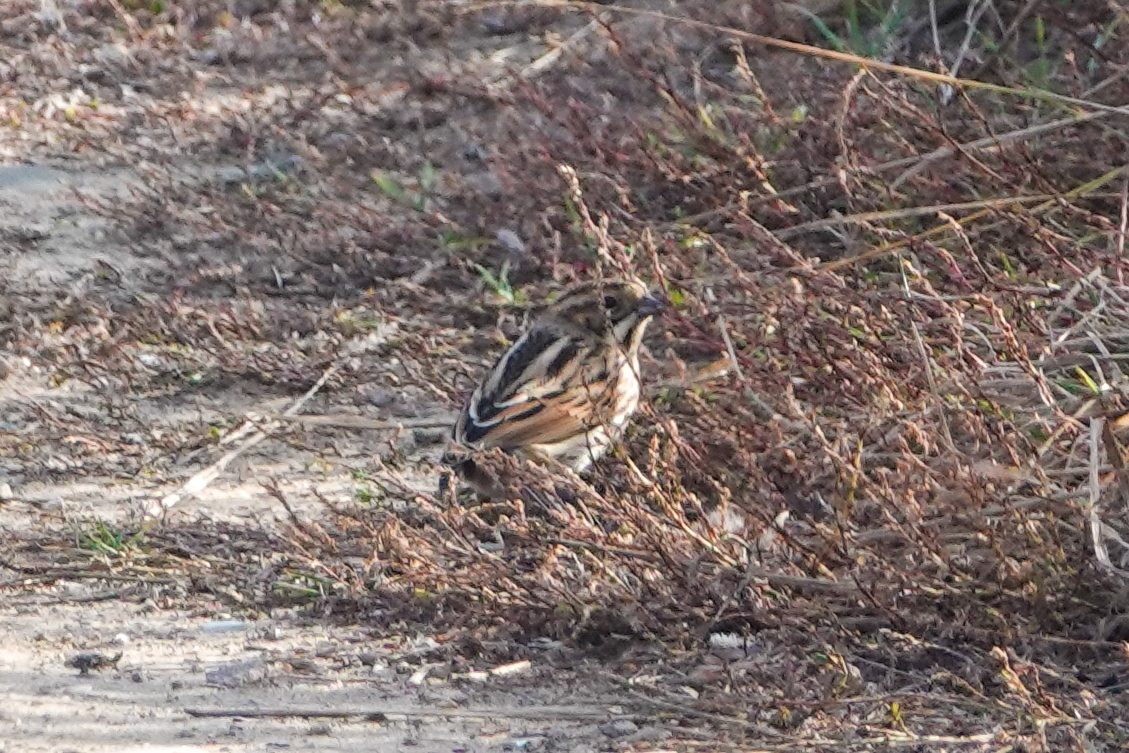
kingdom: Animalia
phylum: Chordata
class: Aves
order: Passeriformes
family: Emberizidae
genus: Emberiza
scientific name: Emberiza schoeniclus
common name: Reed bunting
